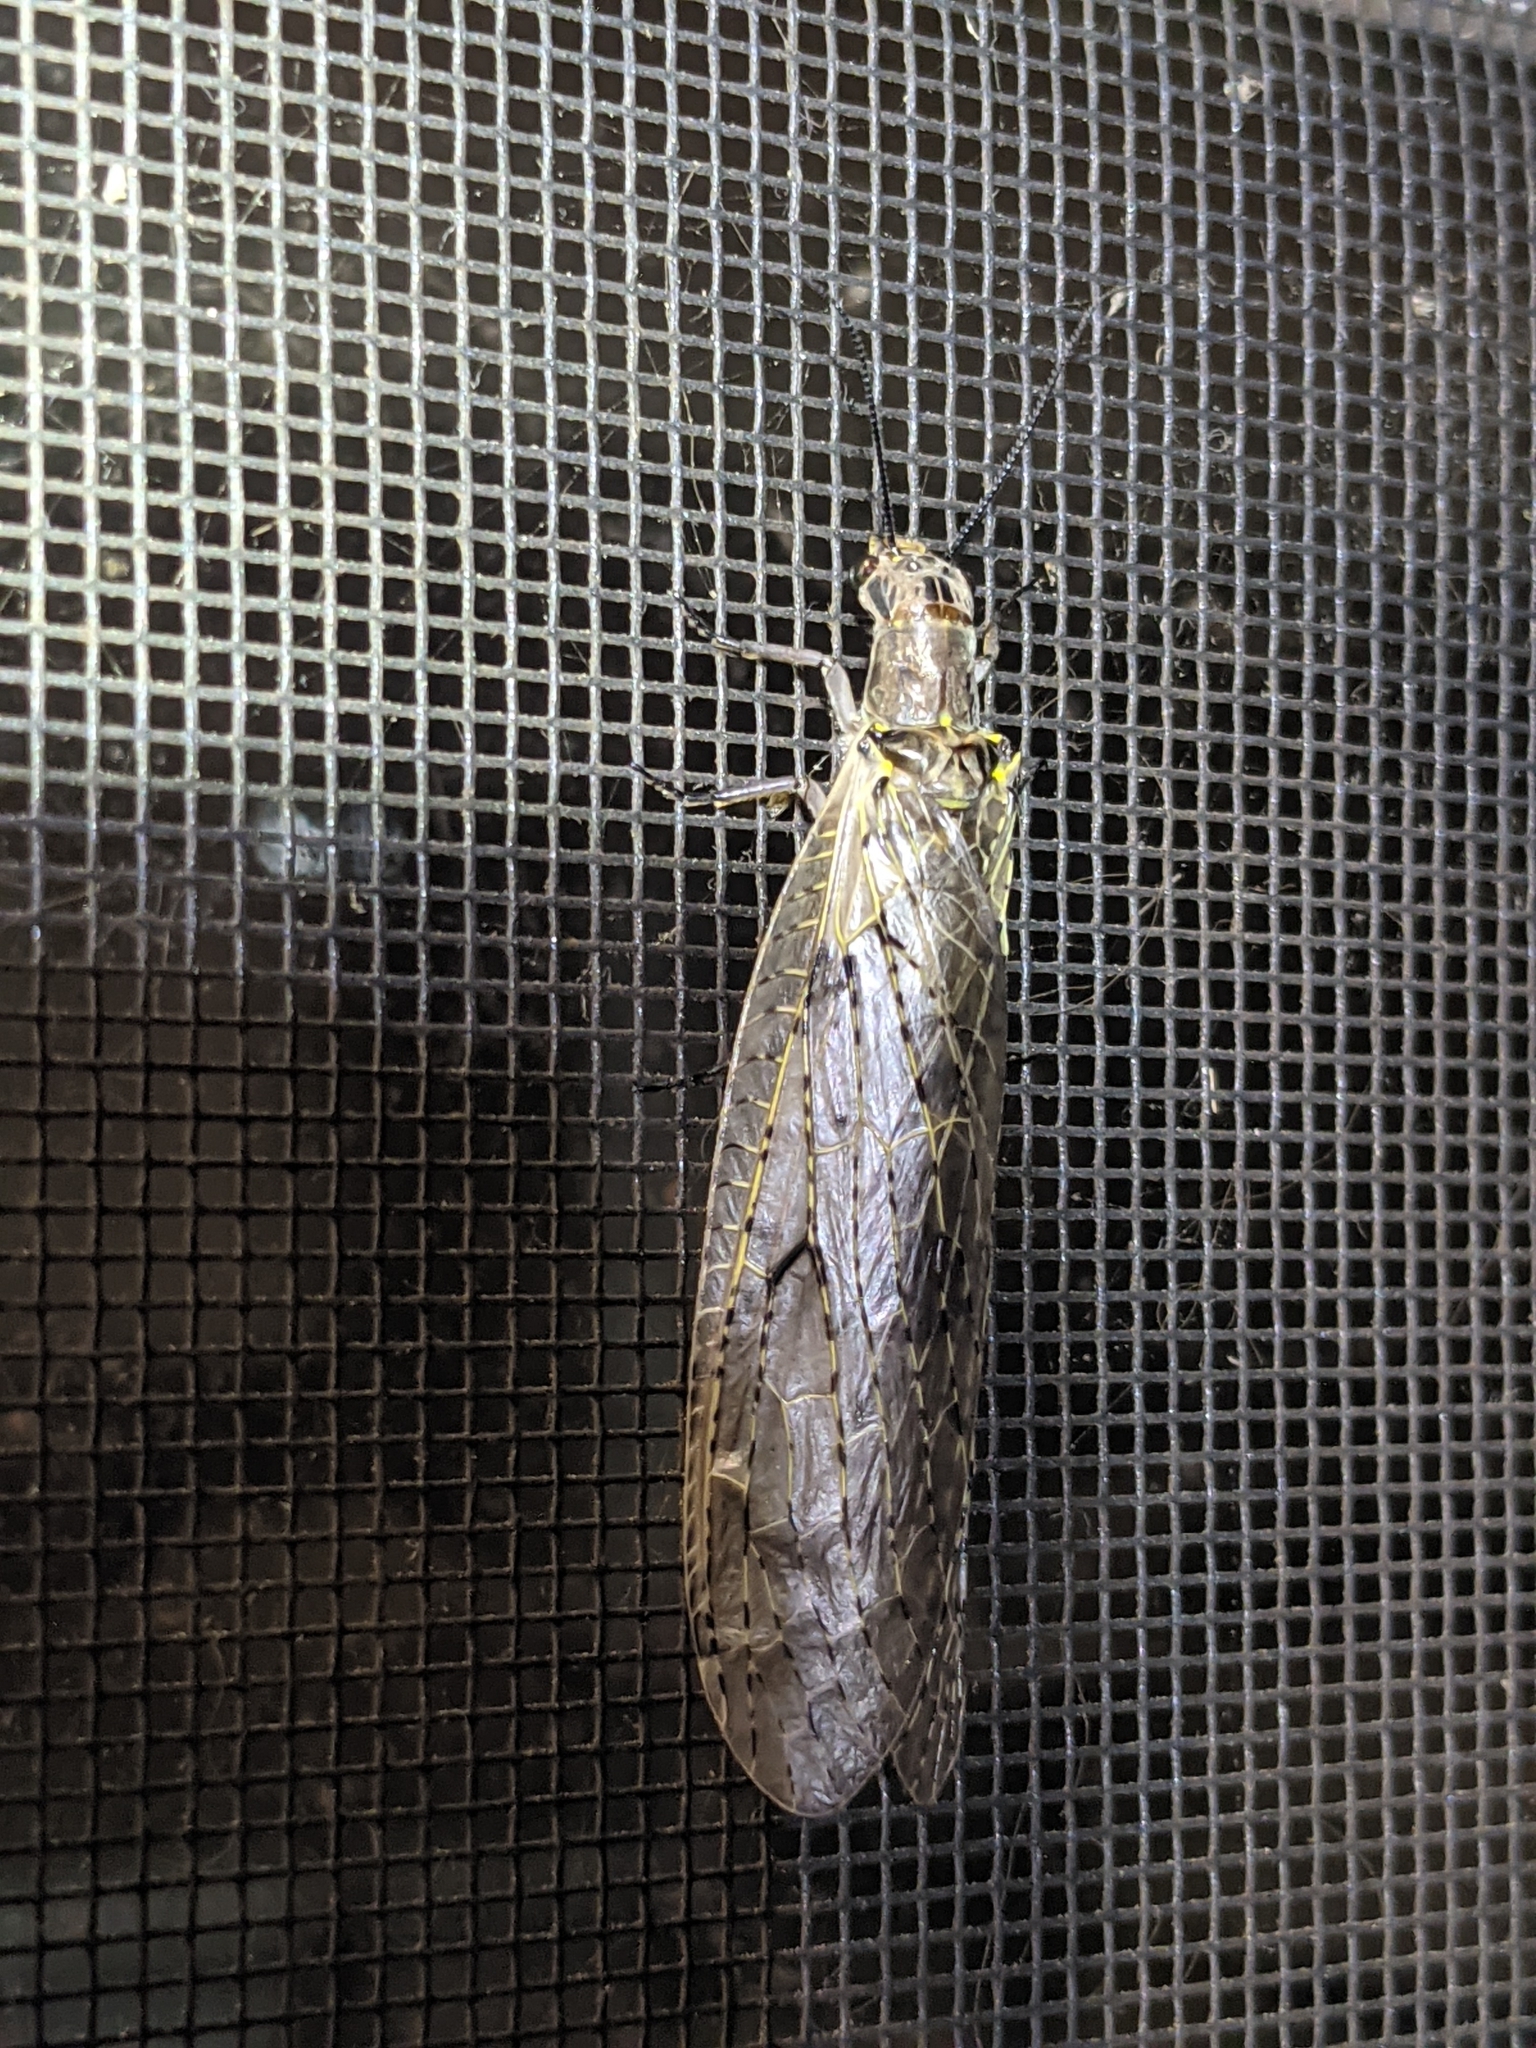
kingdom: Animalia
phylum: Arthropoda
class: Insecta
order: Megaloptera
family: Corydalidae
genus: Chauliodes
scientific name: Chauliodes rastricornis
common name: Spring fishfly
